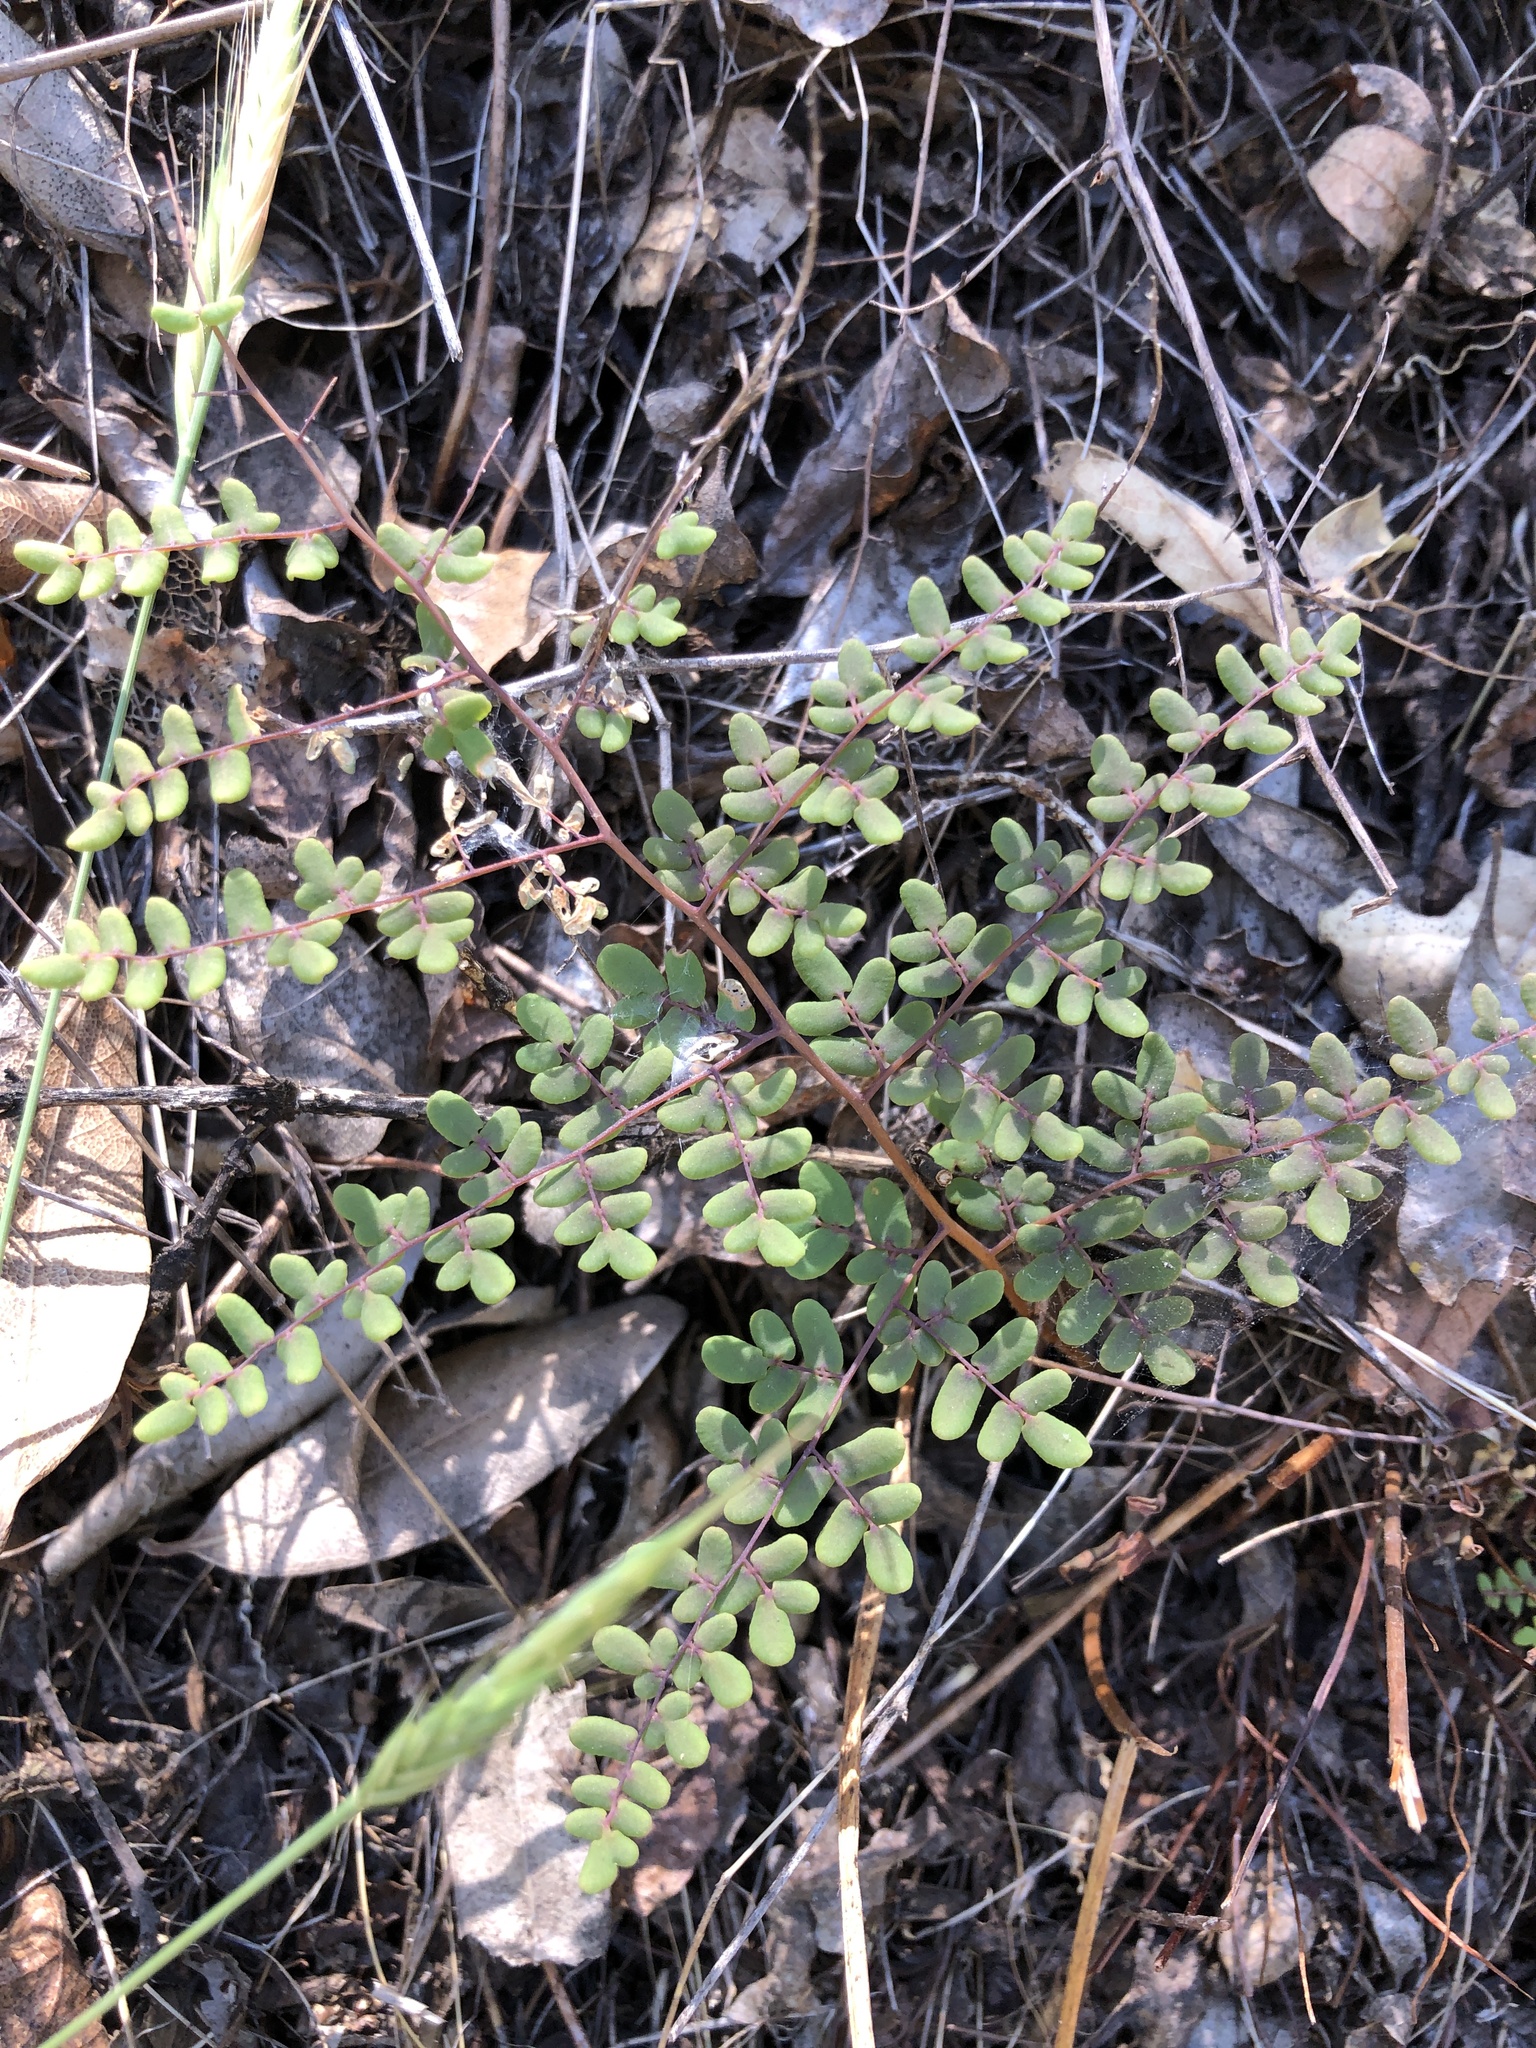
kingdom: Plantae
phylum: Tracheophyta
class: Polypodiopsida
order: Polypodiales
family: Pteridaceae
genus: Pellaea
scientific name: Pellaea andromedifolia
